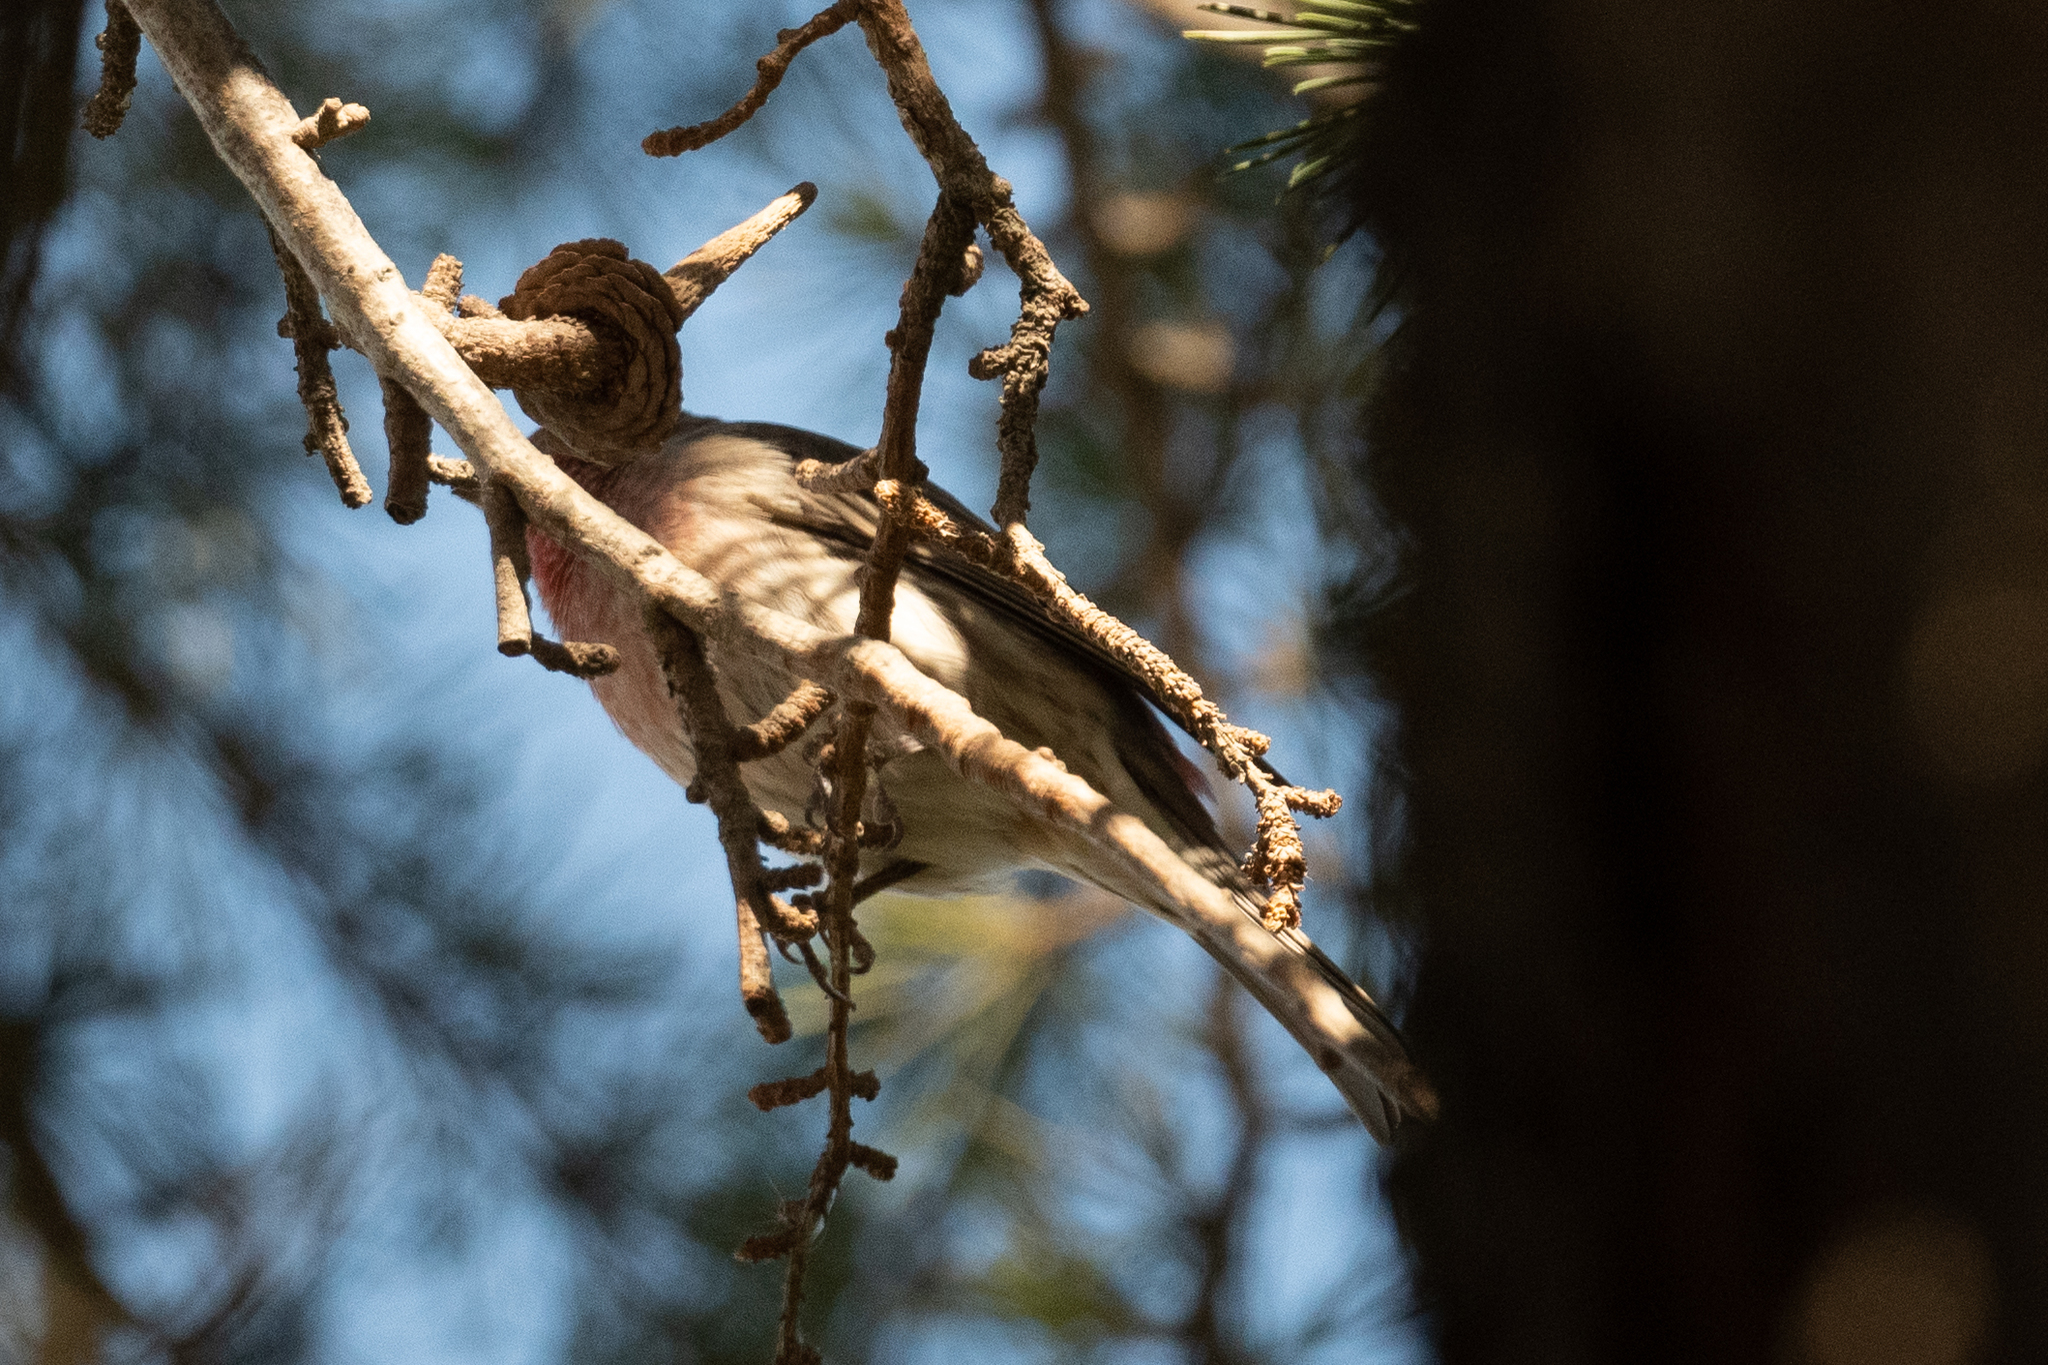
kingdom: Animalia
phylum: Chordata
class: Aves
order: Passeriformes
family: Fringillidae
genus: Haemorhous
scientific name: Haemorhous mexicanus
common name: House finch
